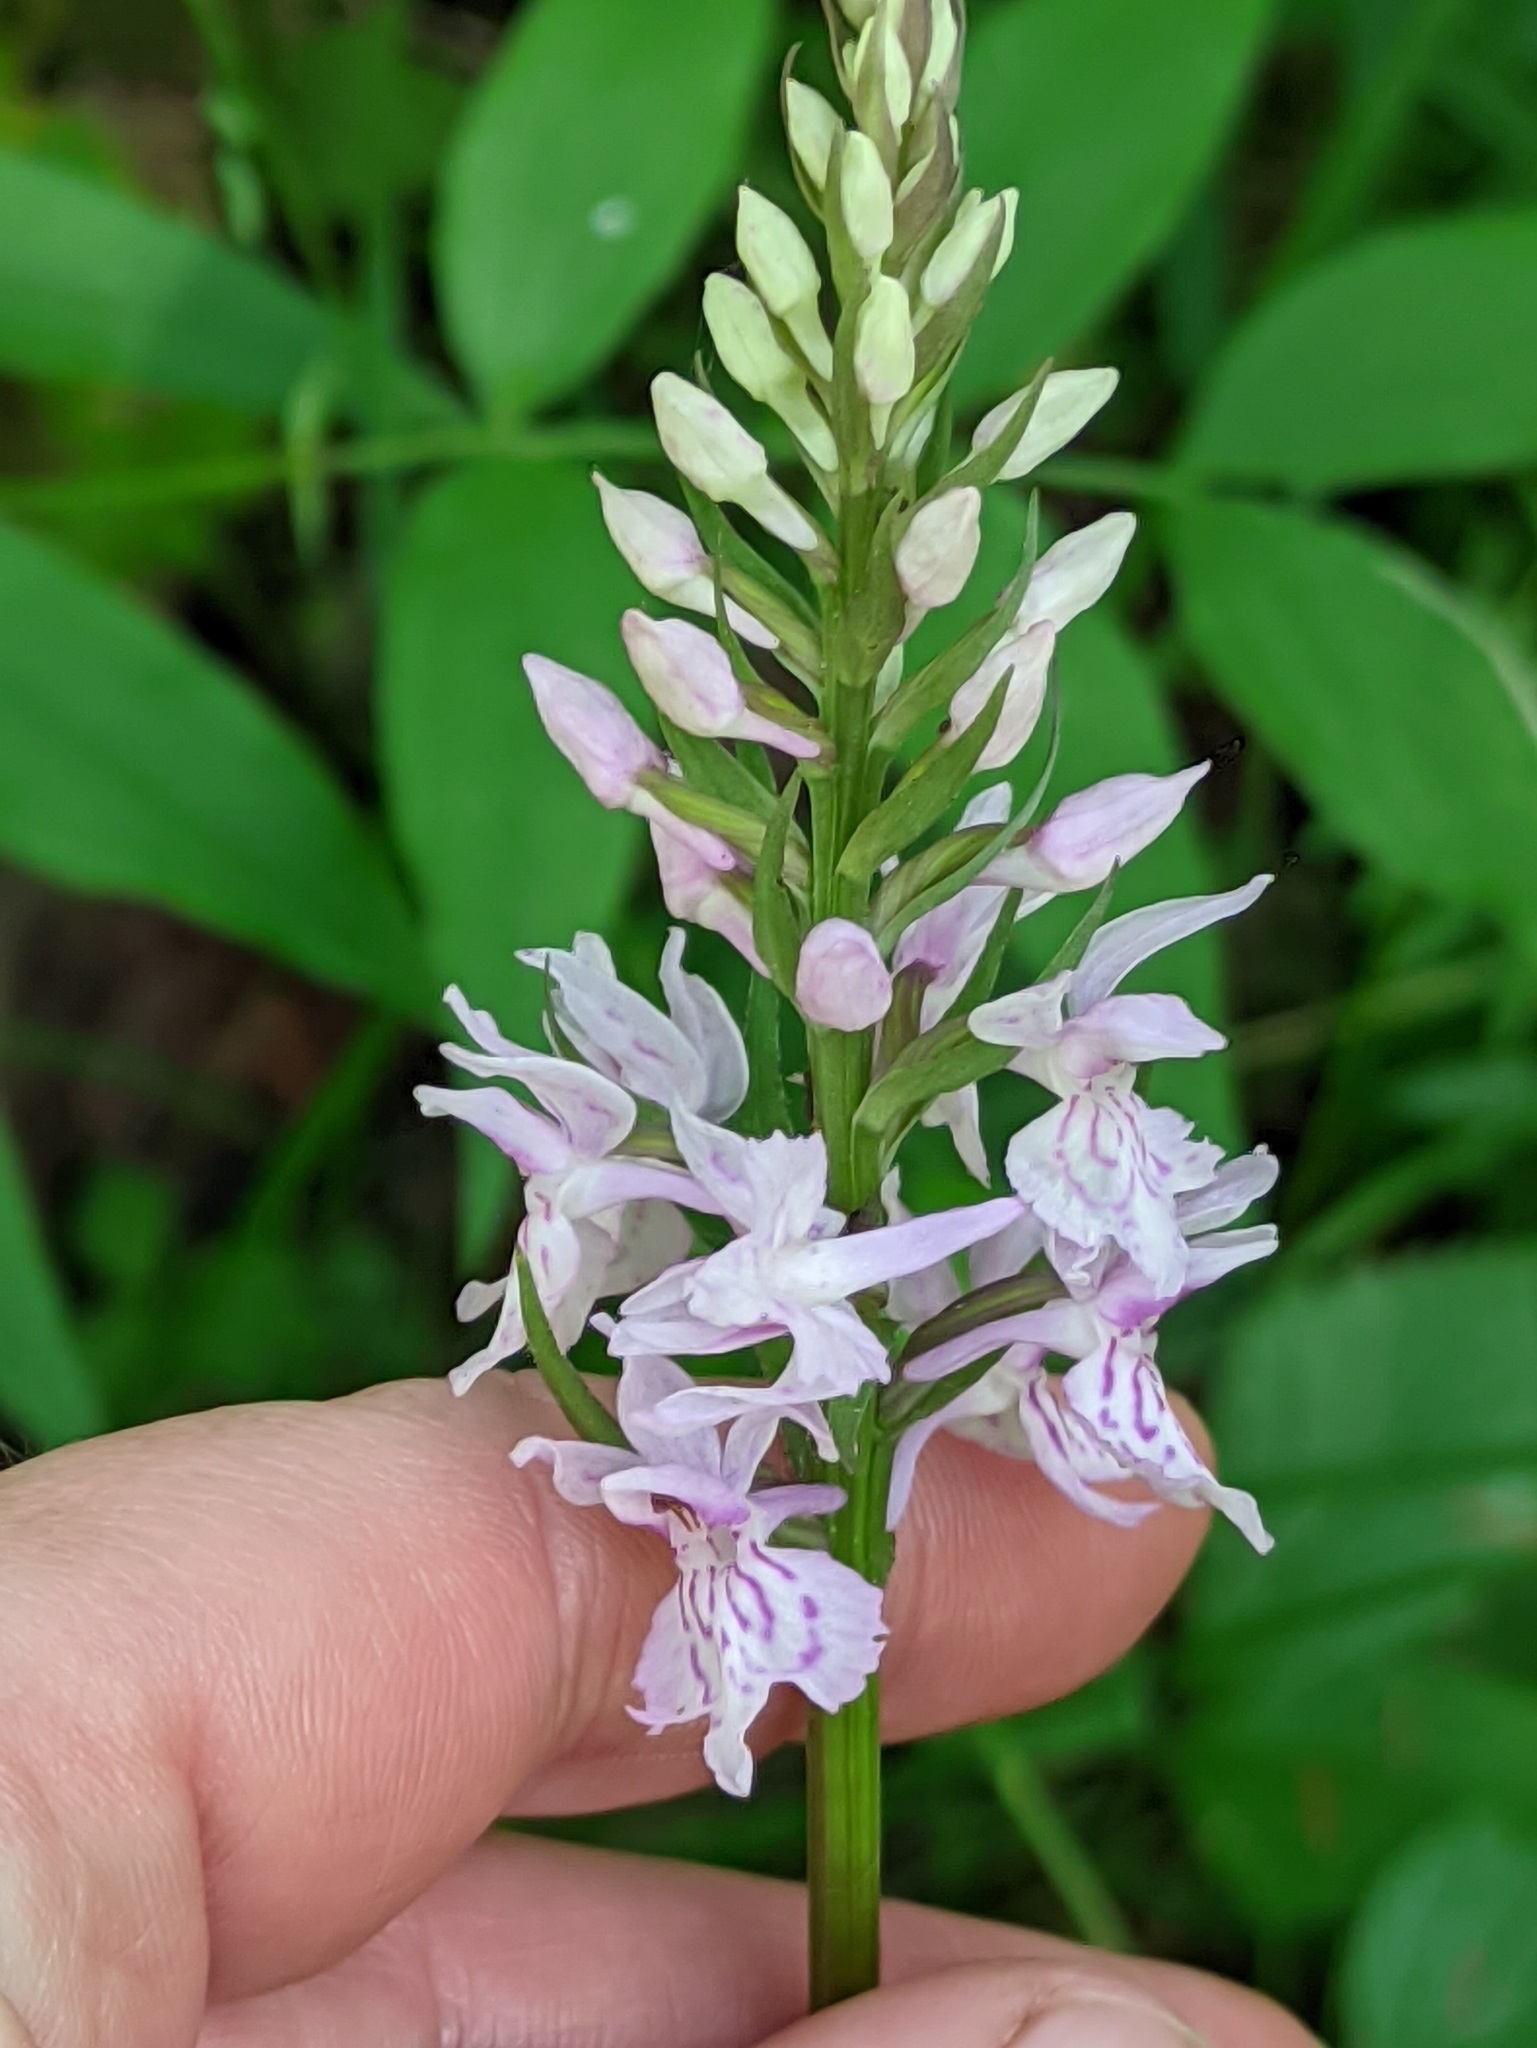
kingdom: Plantae
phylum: Tracheophyta
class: Liliopsida
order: Asparagales
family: Orchidaceae
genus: Dactylorhiza
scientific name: Dactylorhiza maculata
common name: Heath spotted-orchid
